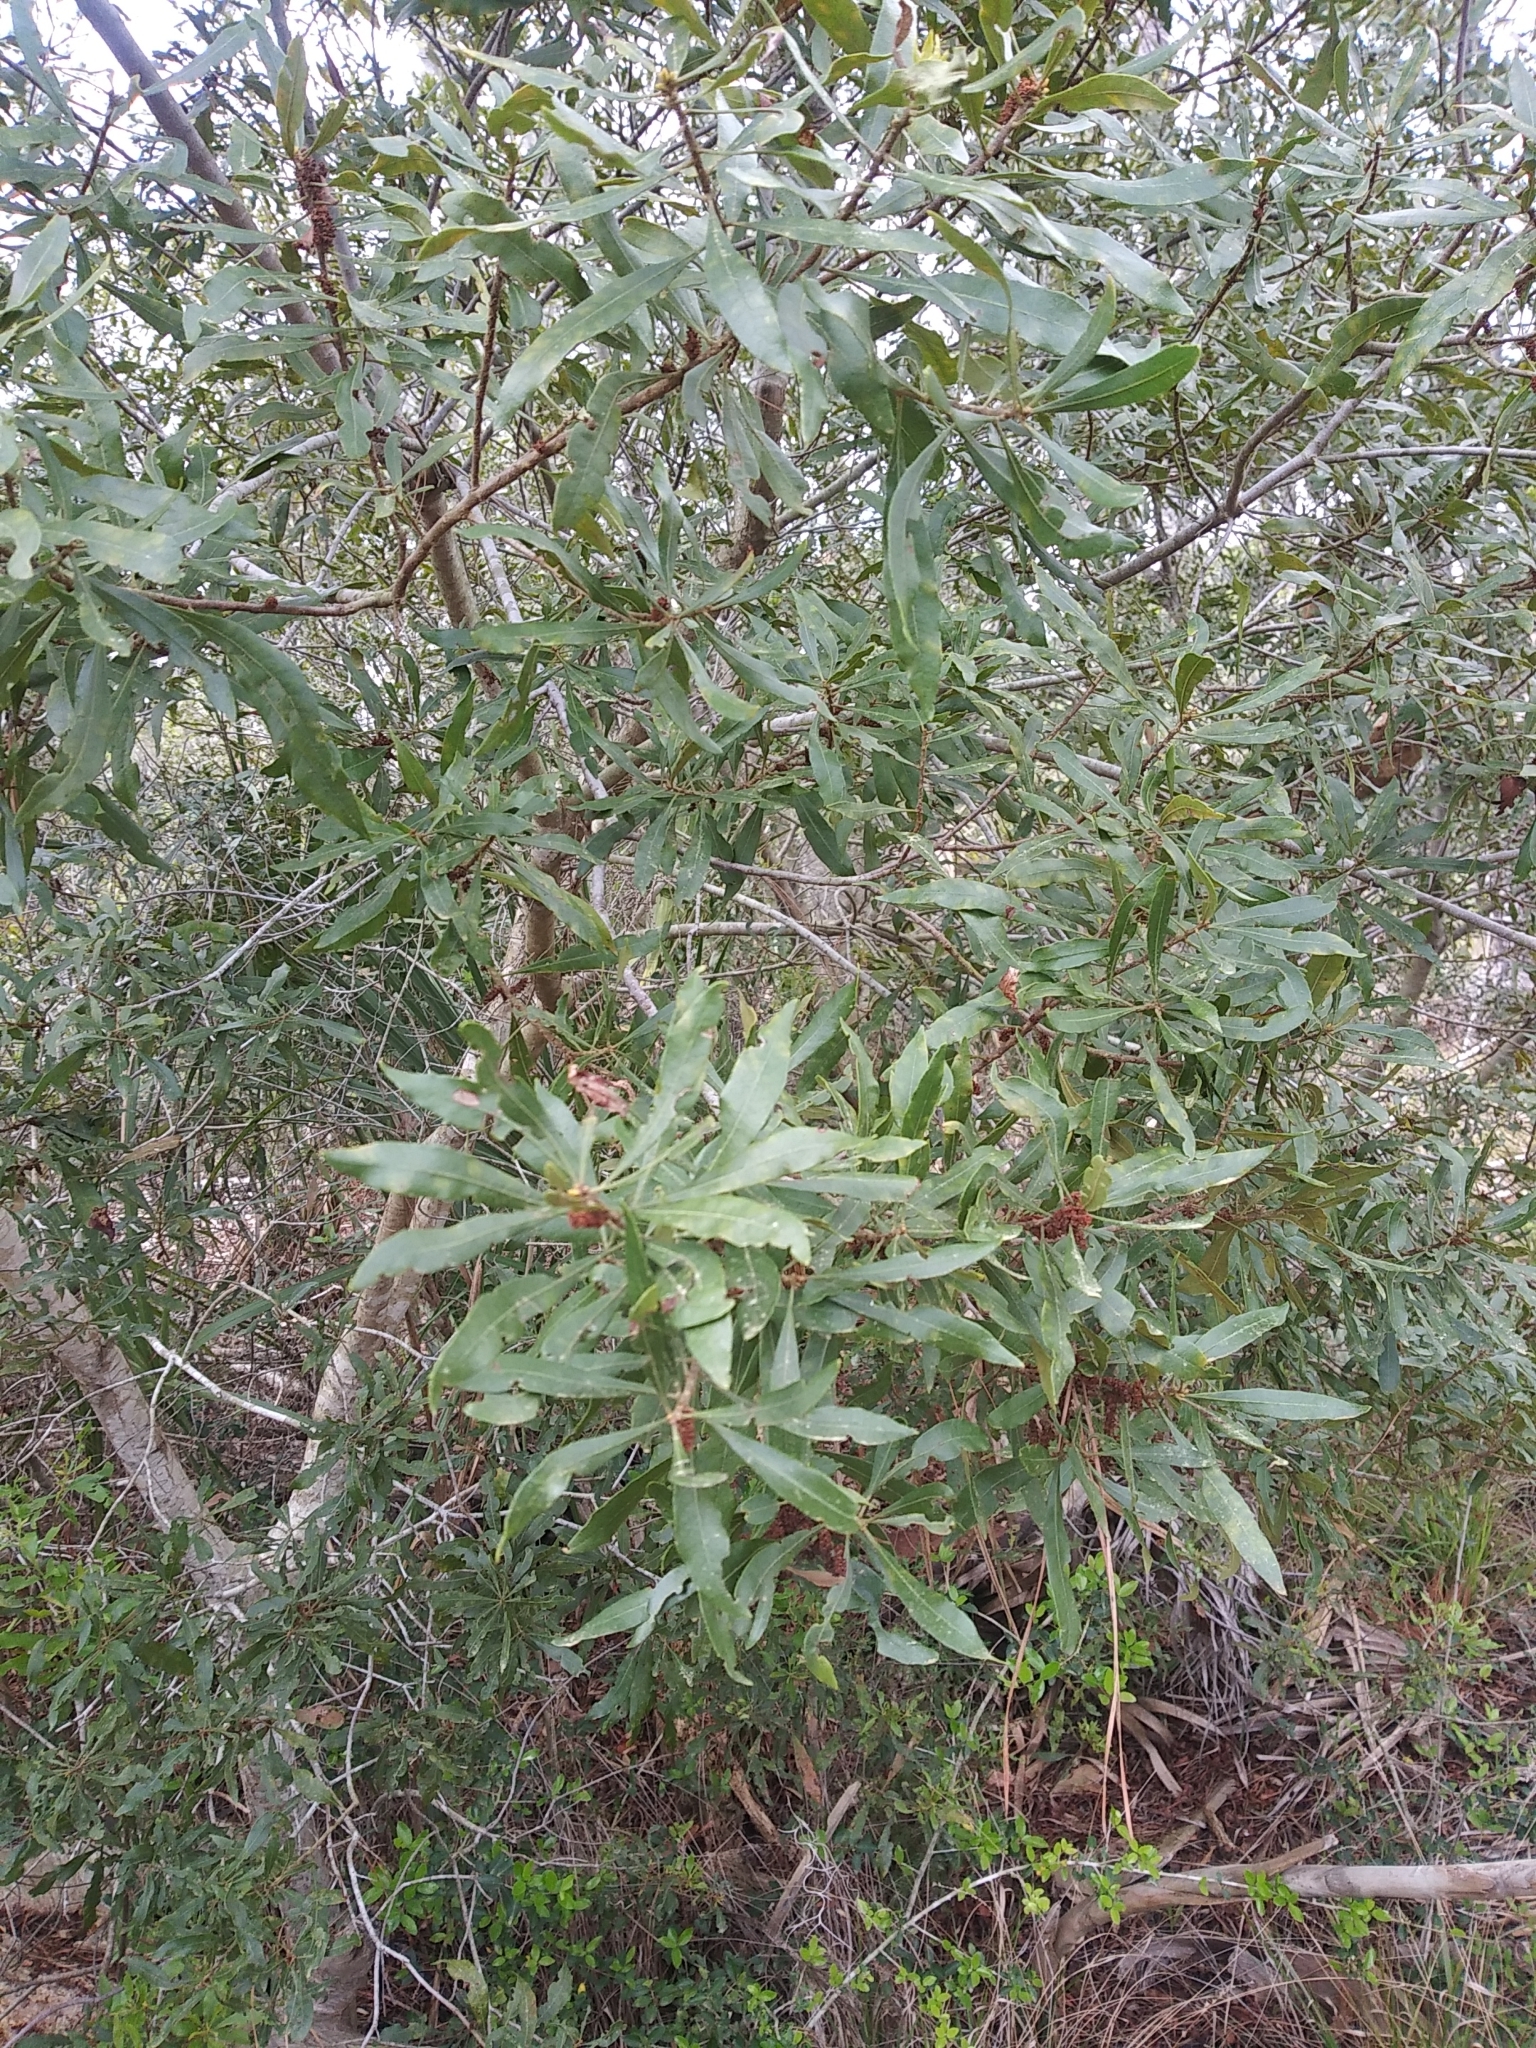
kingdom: Plantae
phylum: Tracheophyta
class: Magnoliopsida
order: Fagales
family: Myricaceae
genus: Morella
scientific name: Morella cerifera
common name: Wax myrtle
